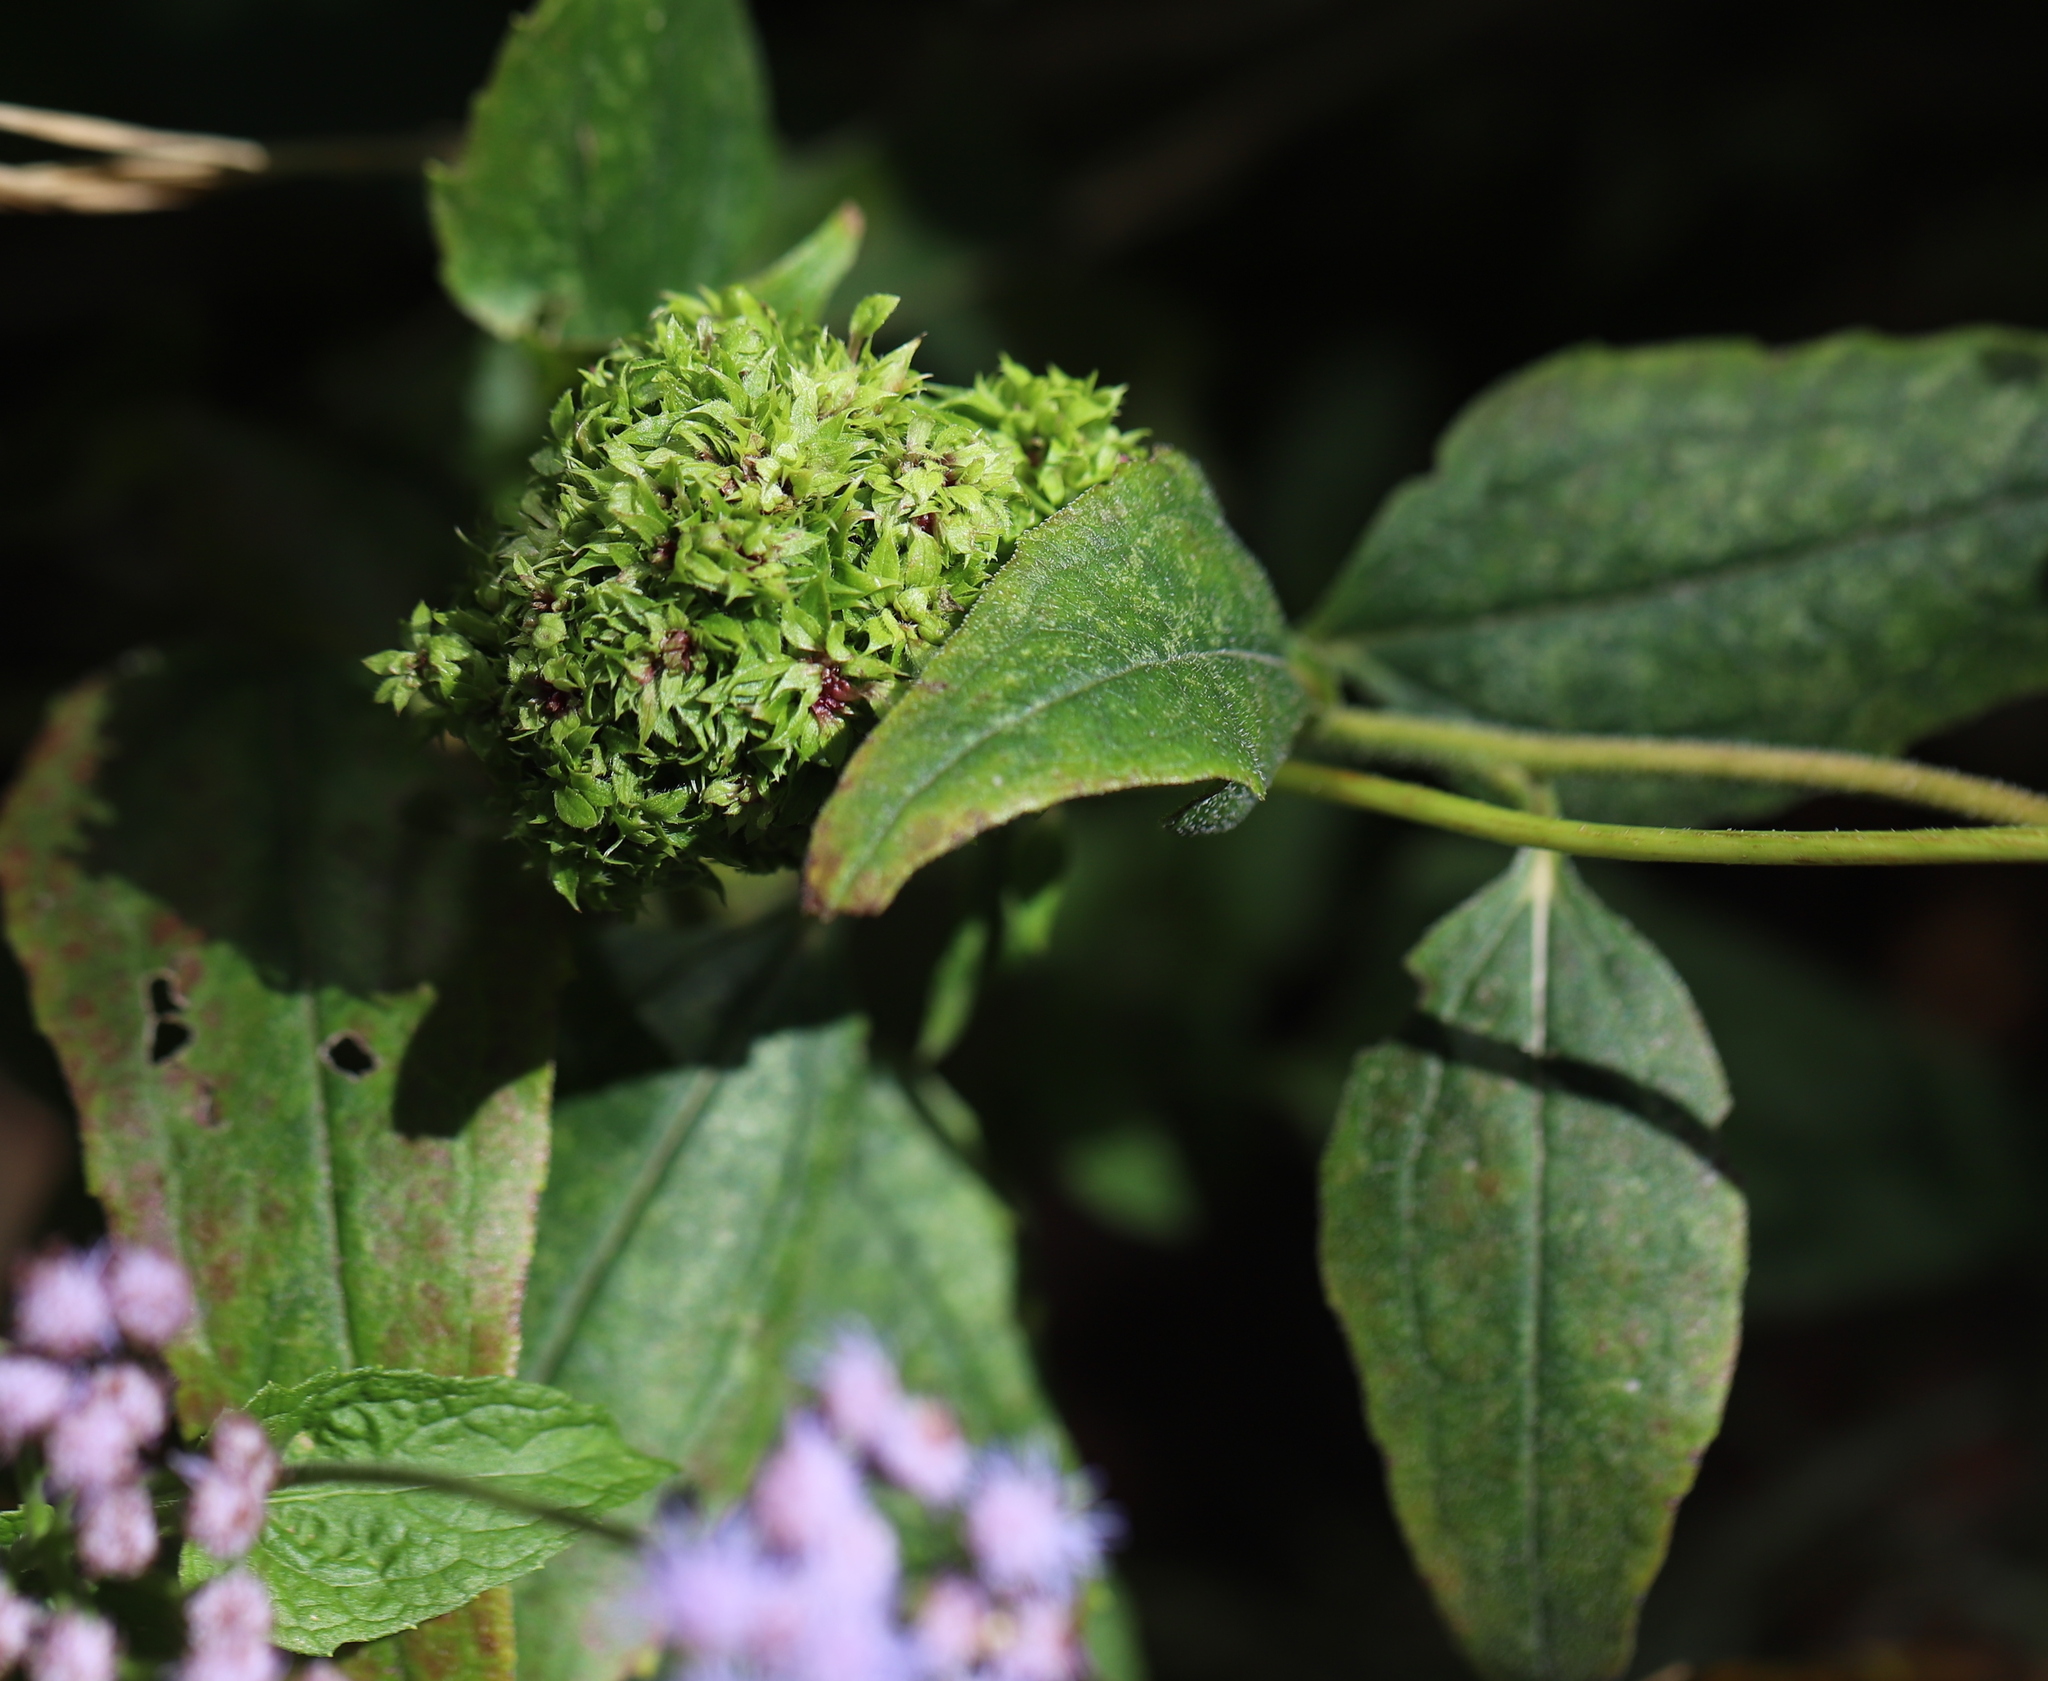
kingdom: Bacteria
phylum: Firmicutes
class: Bacilli
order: Acholeplasmatales
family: Acholeplasmataceae
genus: Phytoplasma
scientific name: Phytoplasma
